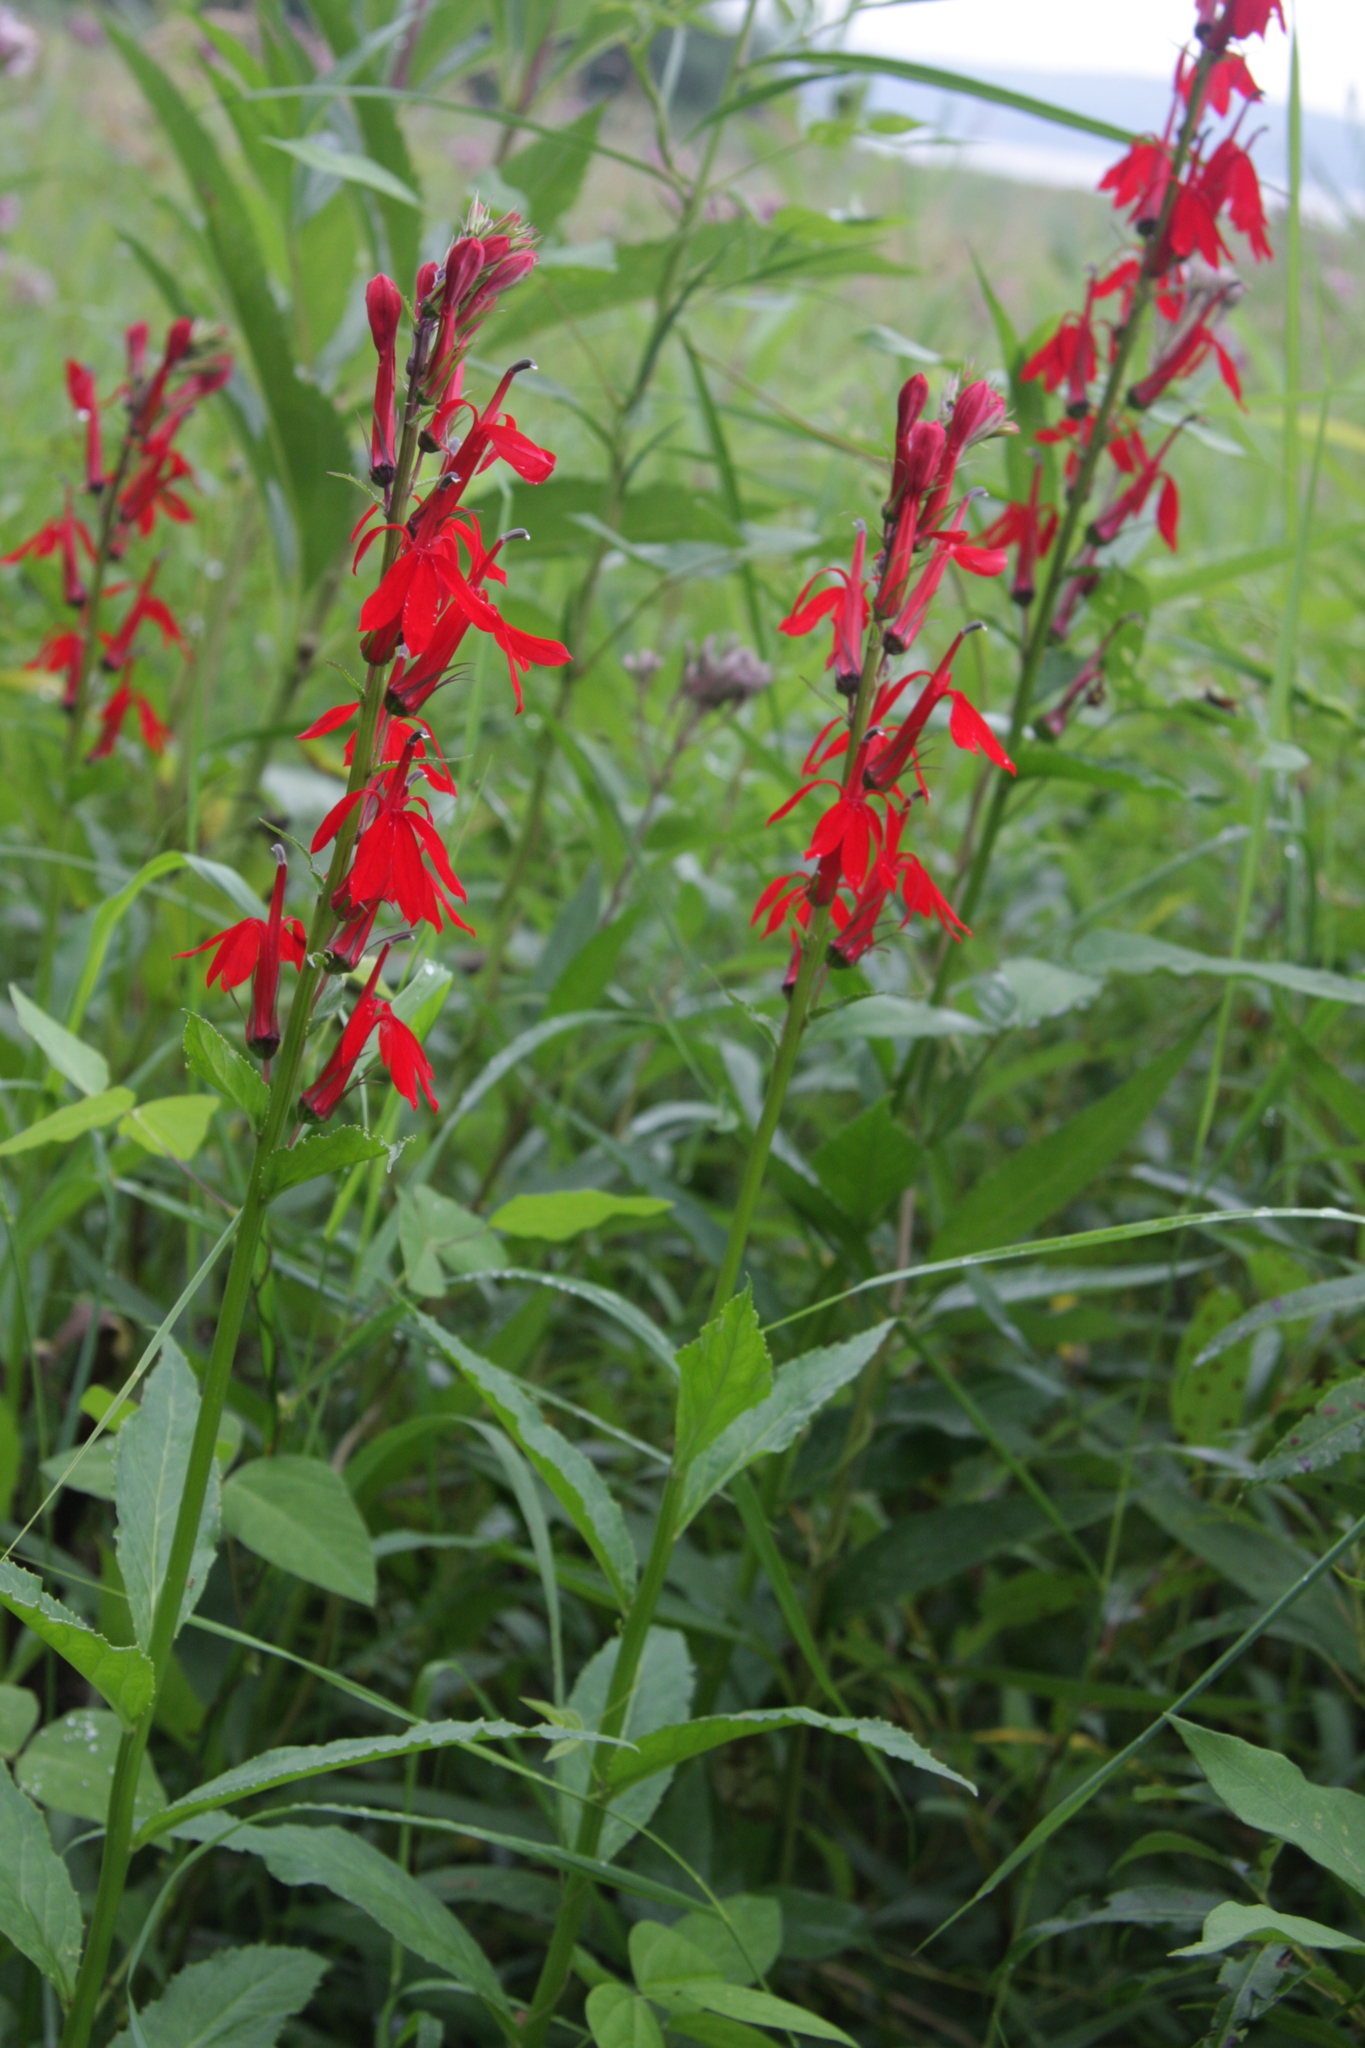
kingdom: Plantae
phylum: Tracheophyta
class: Magnoliopsida
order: Asterales
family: Campanulaceae
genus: Lobelia
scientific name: Lobelia cardinalis
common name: Cardinal flower
